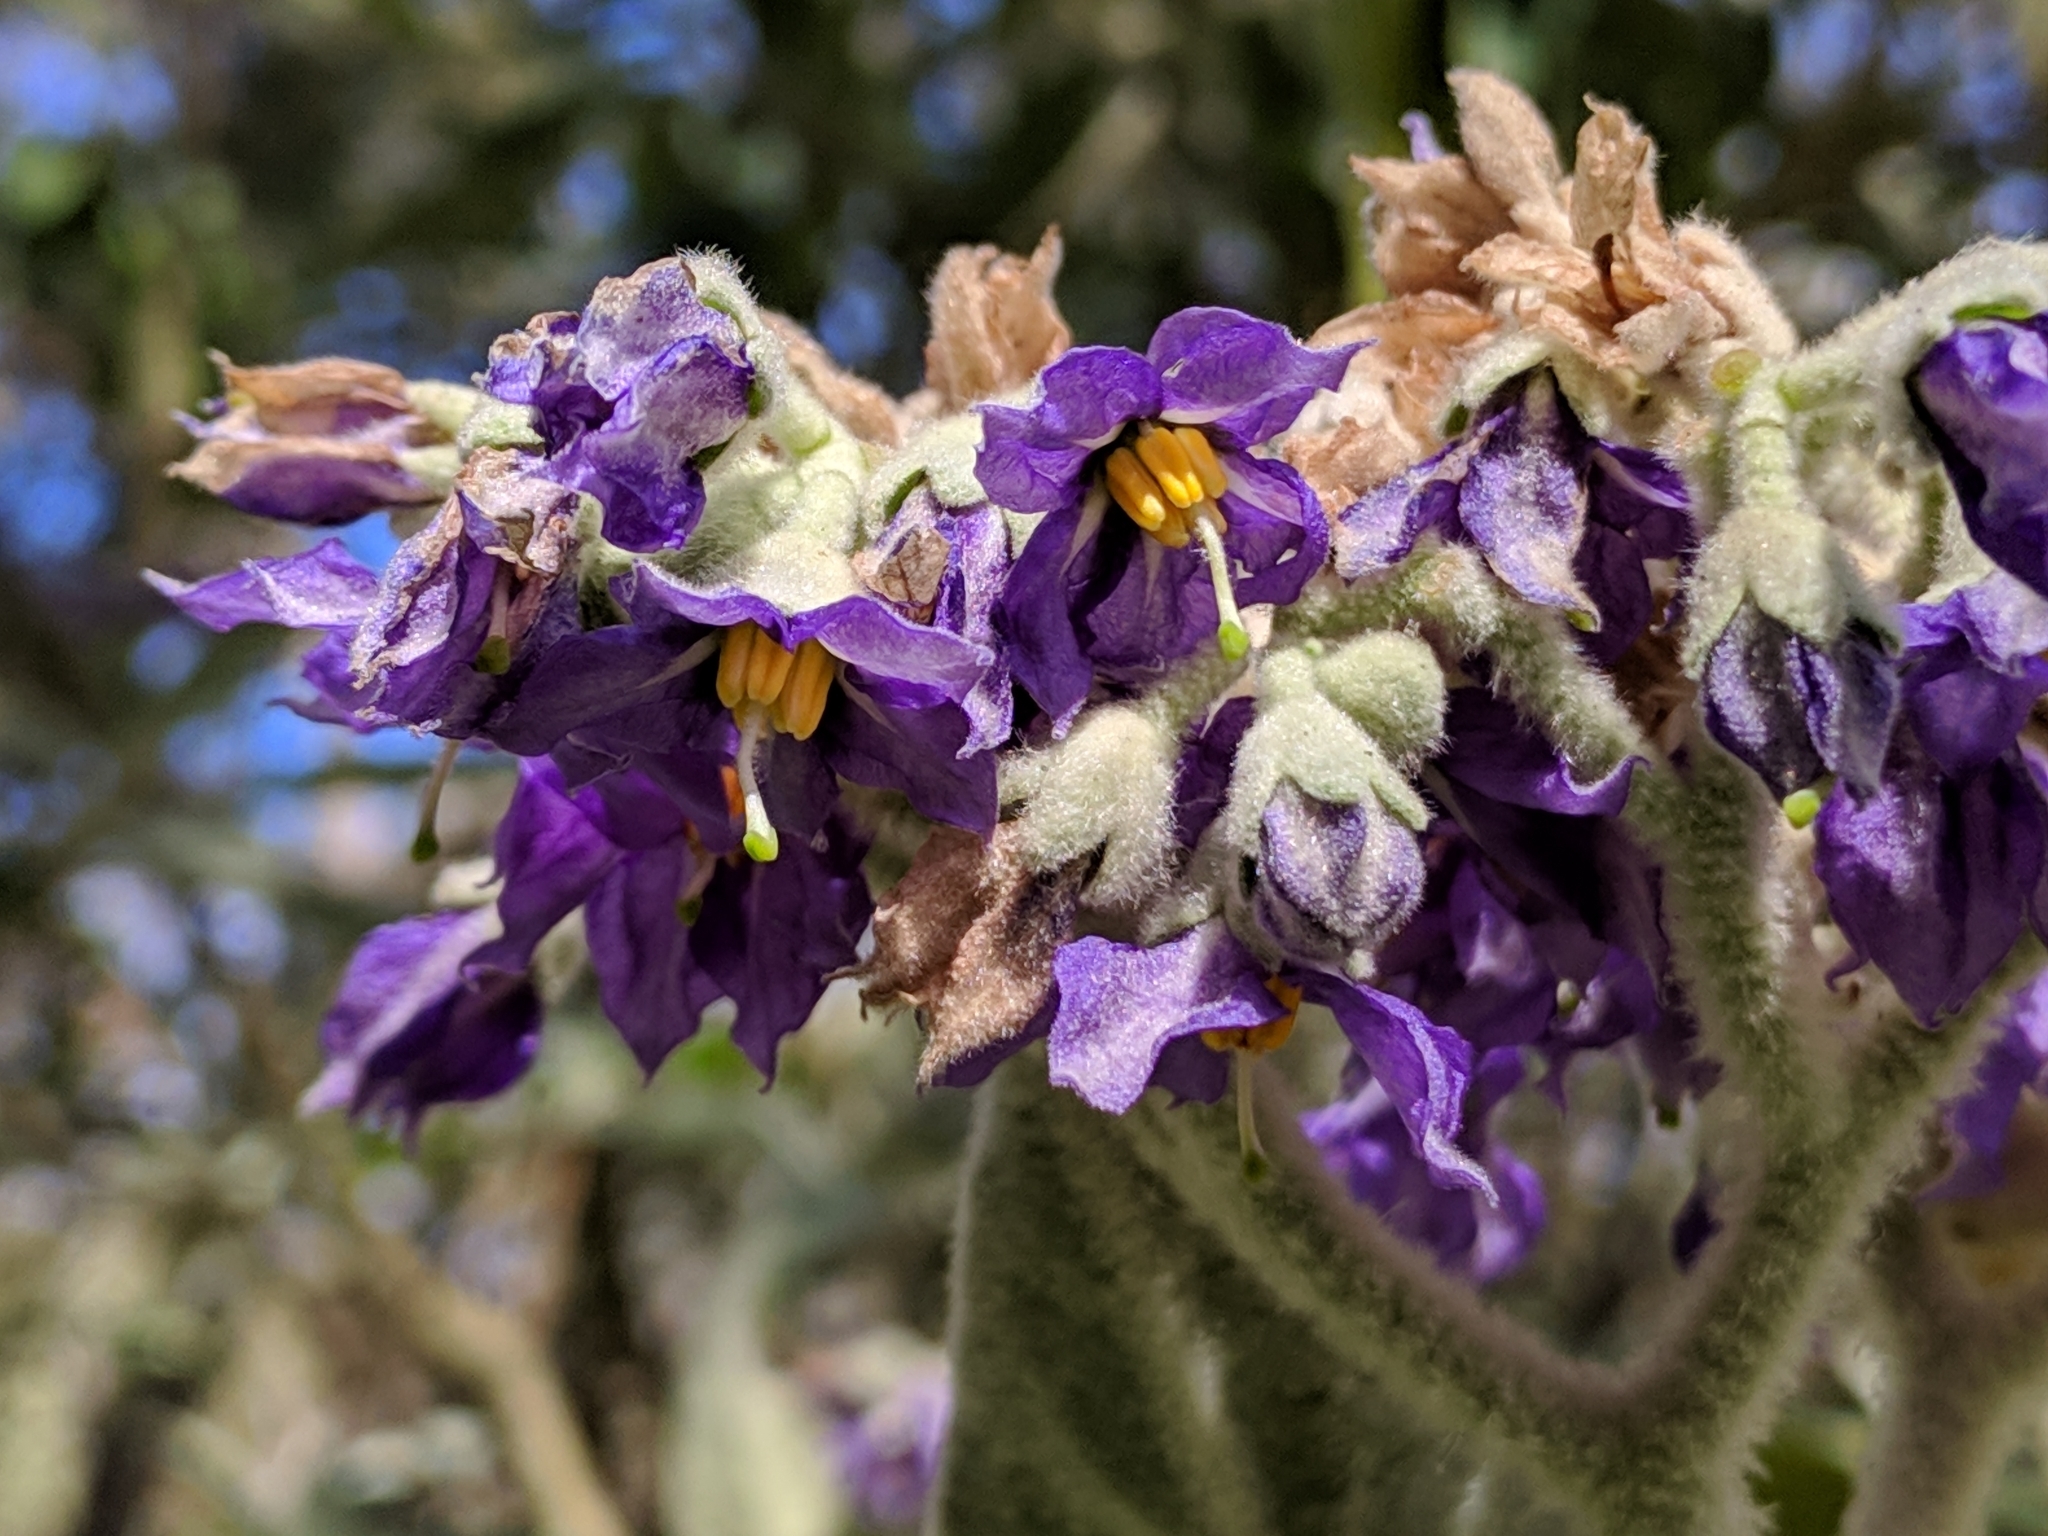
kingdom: Plantae
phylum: Tracheophyta
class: Magnoliopsida
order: Solanales
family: Solanaceae
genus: Solanum
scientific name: Solanum mauritianum
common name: Earleaf nightshade
